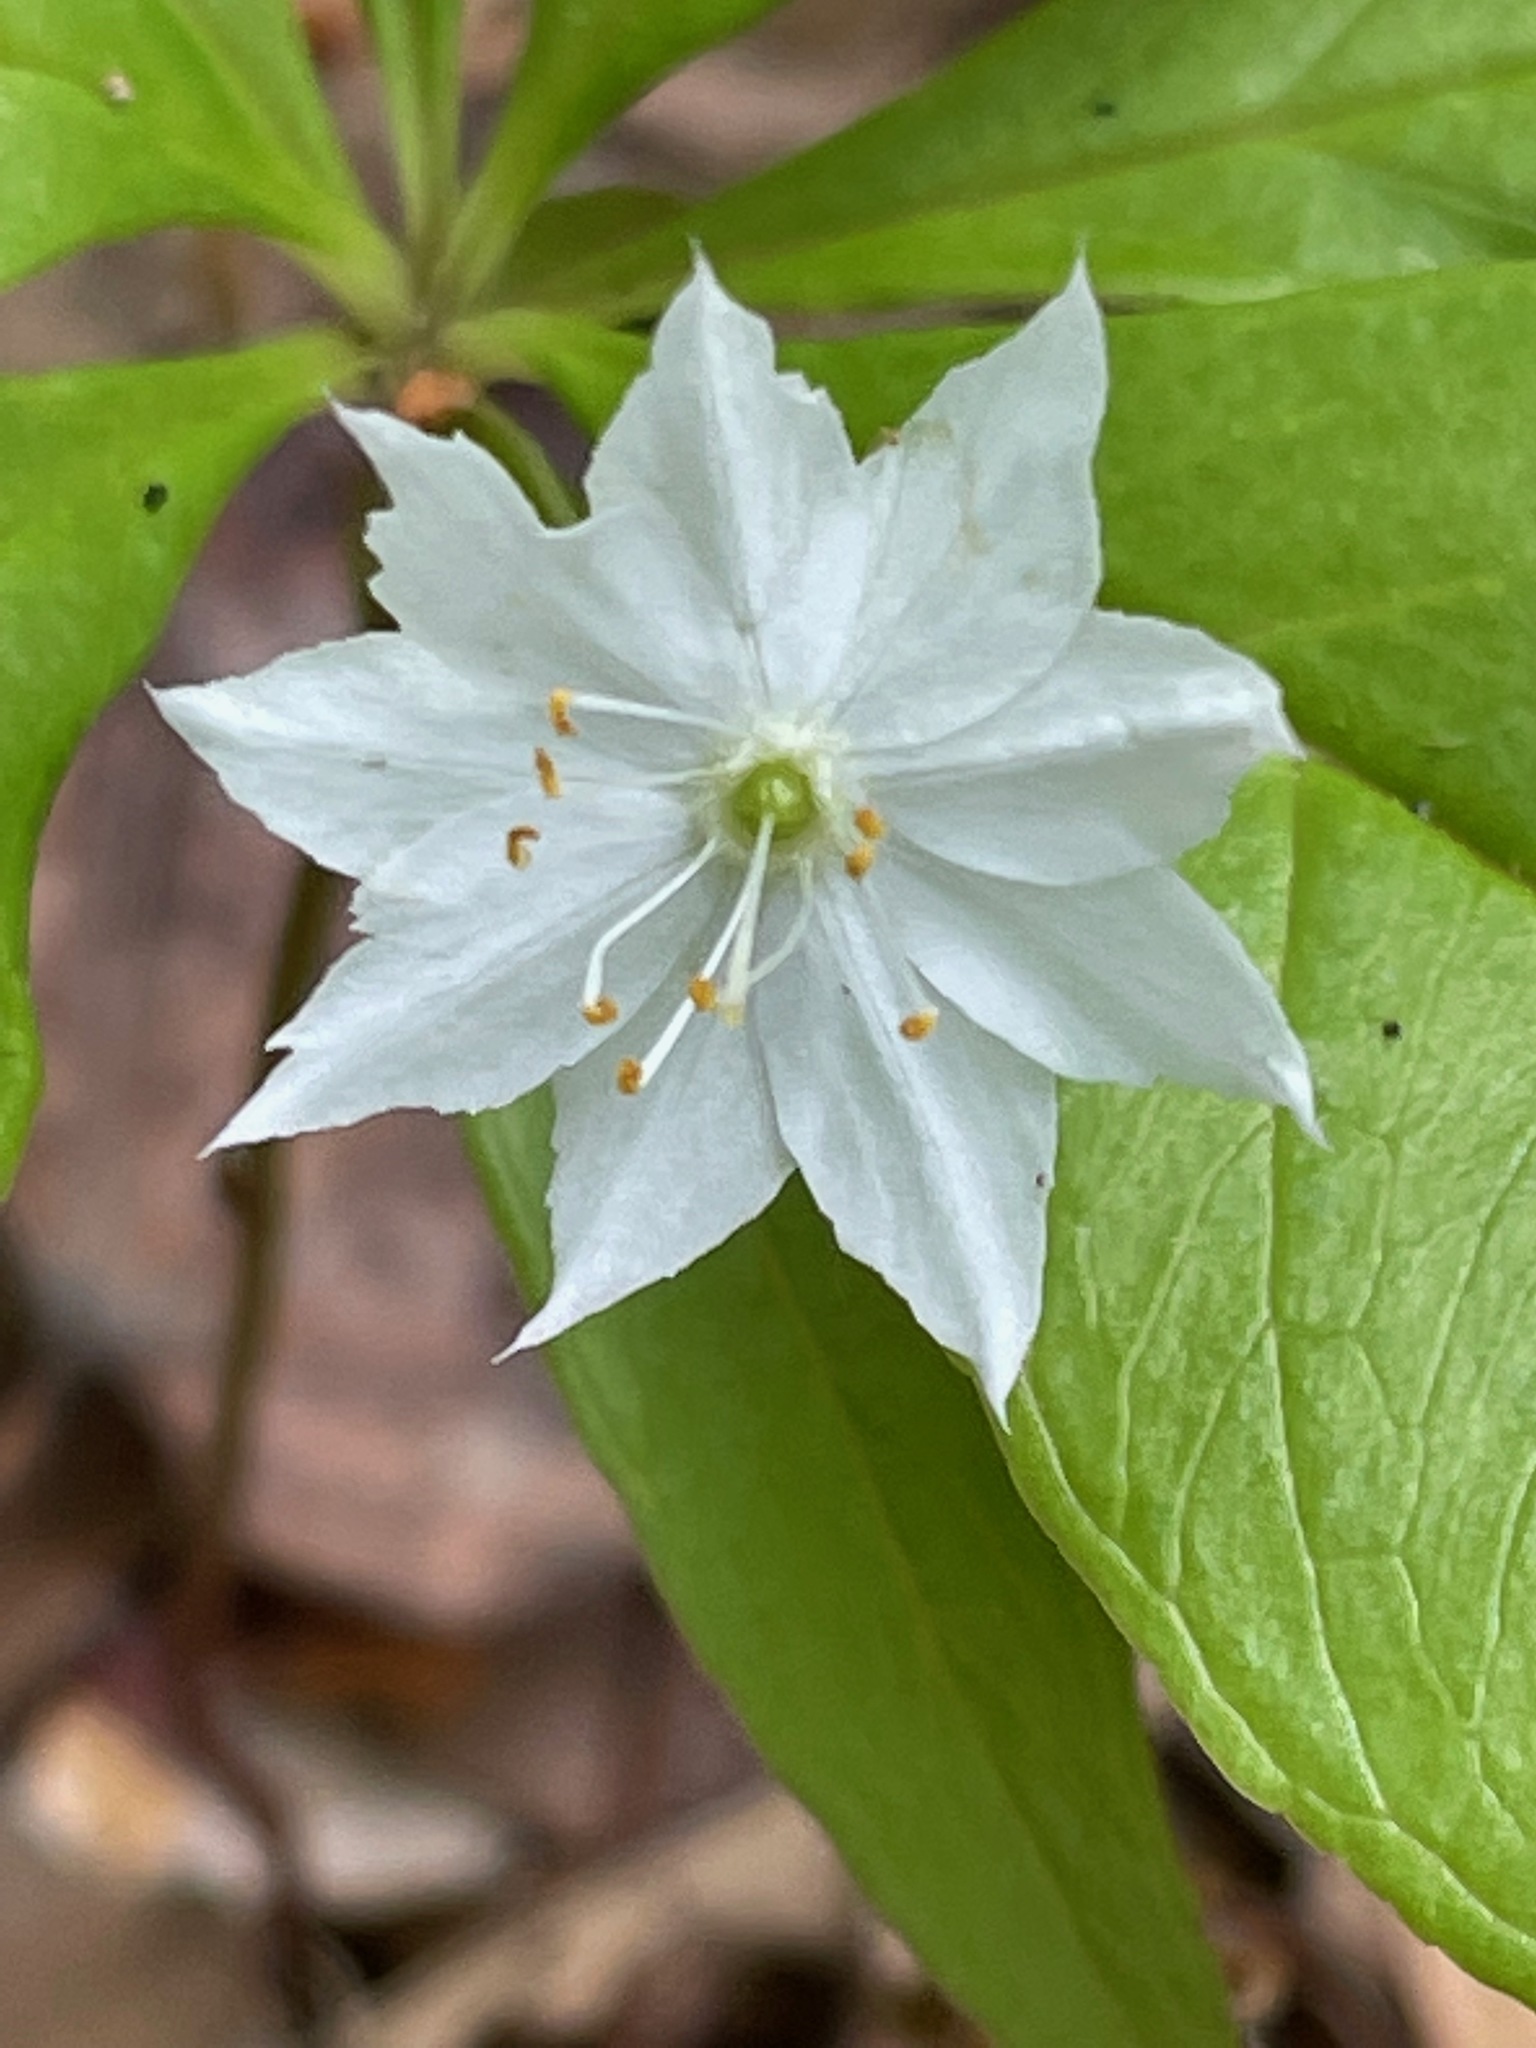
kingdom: Plantae
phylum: Tracheophyta
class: Magnoliopsida
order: Ericales
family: Primulaceae
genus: Lysimachia
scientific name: Lysimachia borealis
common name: American starflower
